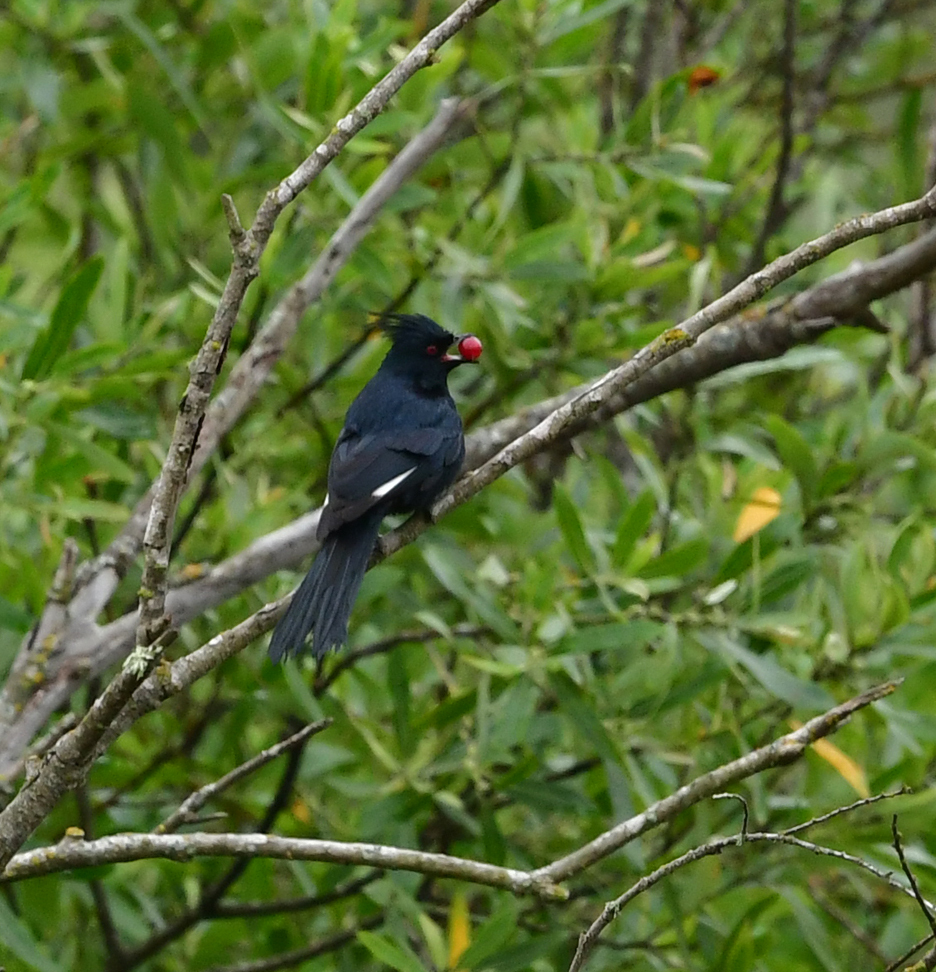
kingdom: Animalia
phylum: Chordata
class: Aves
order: Passeriformes
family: Ptilogonatidae
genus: Phainopepla
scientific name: Phainopepla nitens
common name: Phainopepla
